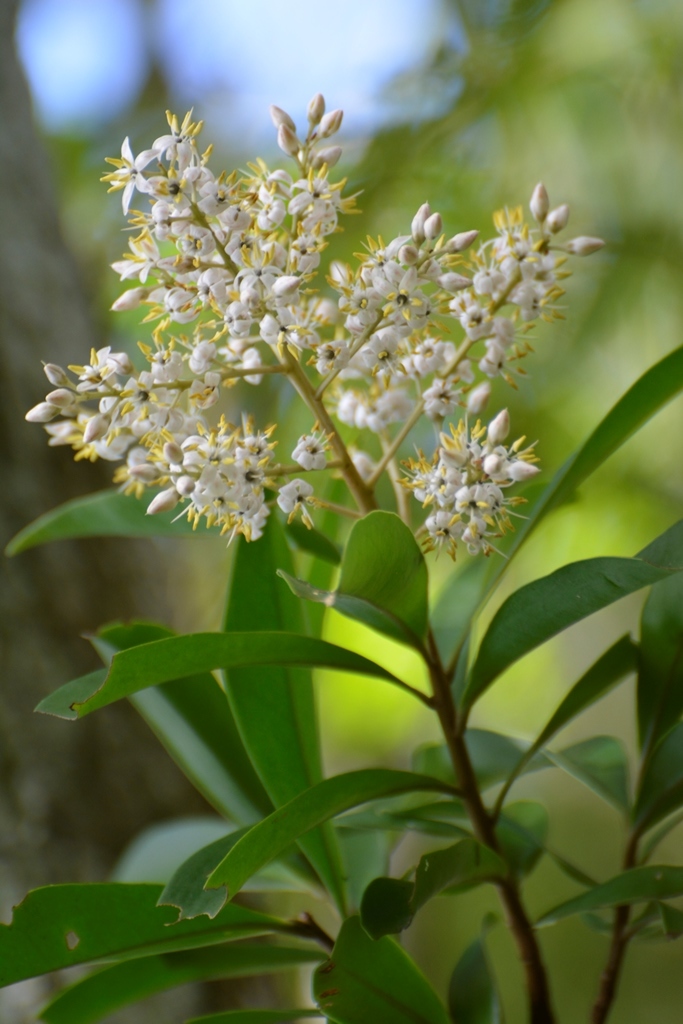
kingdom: Plantae
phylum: Tracheophyta
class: Magnoliopsida
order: Ericales
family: Primulaceae
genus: Ardisia
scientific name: Ardisia escallonioides
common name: Island marlberry
